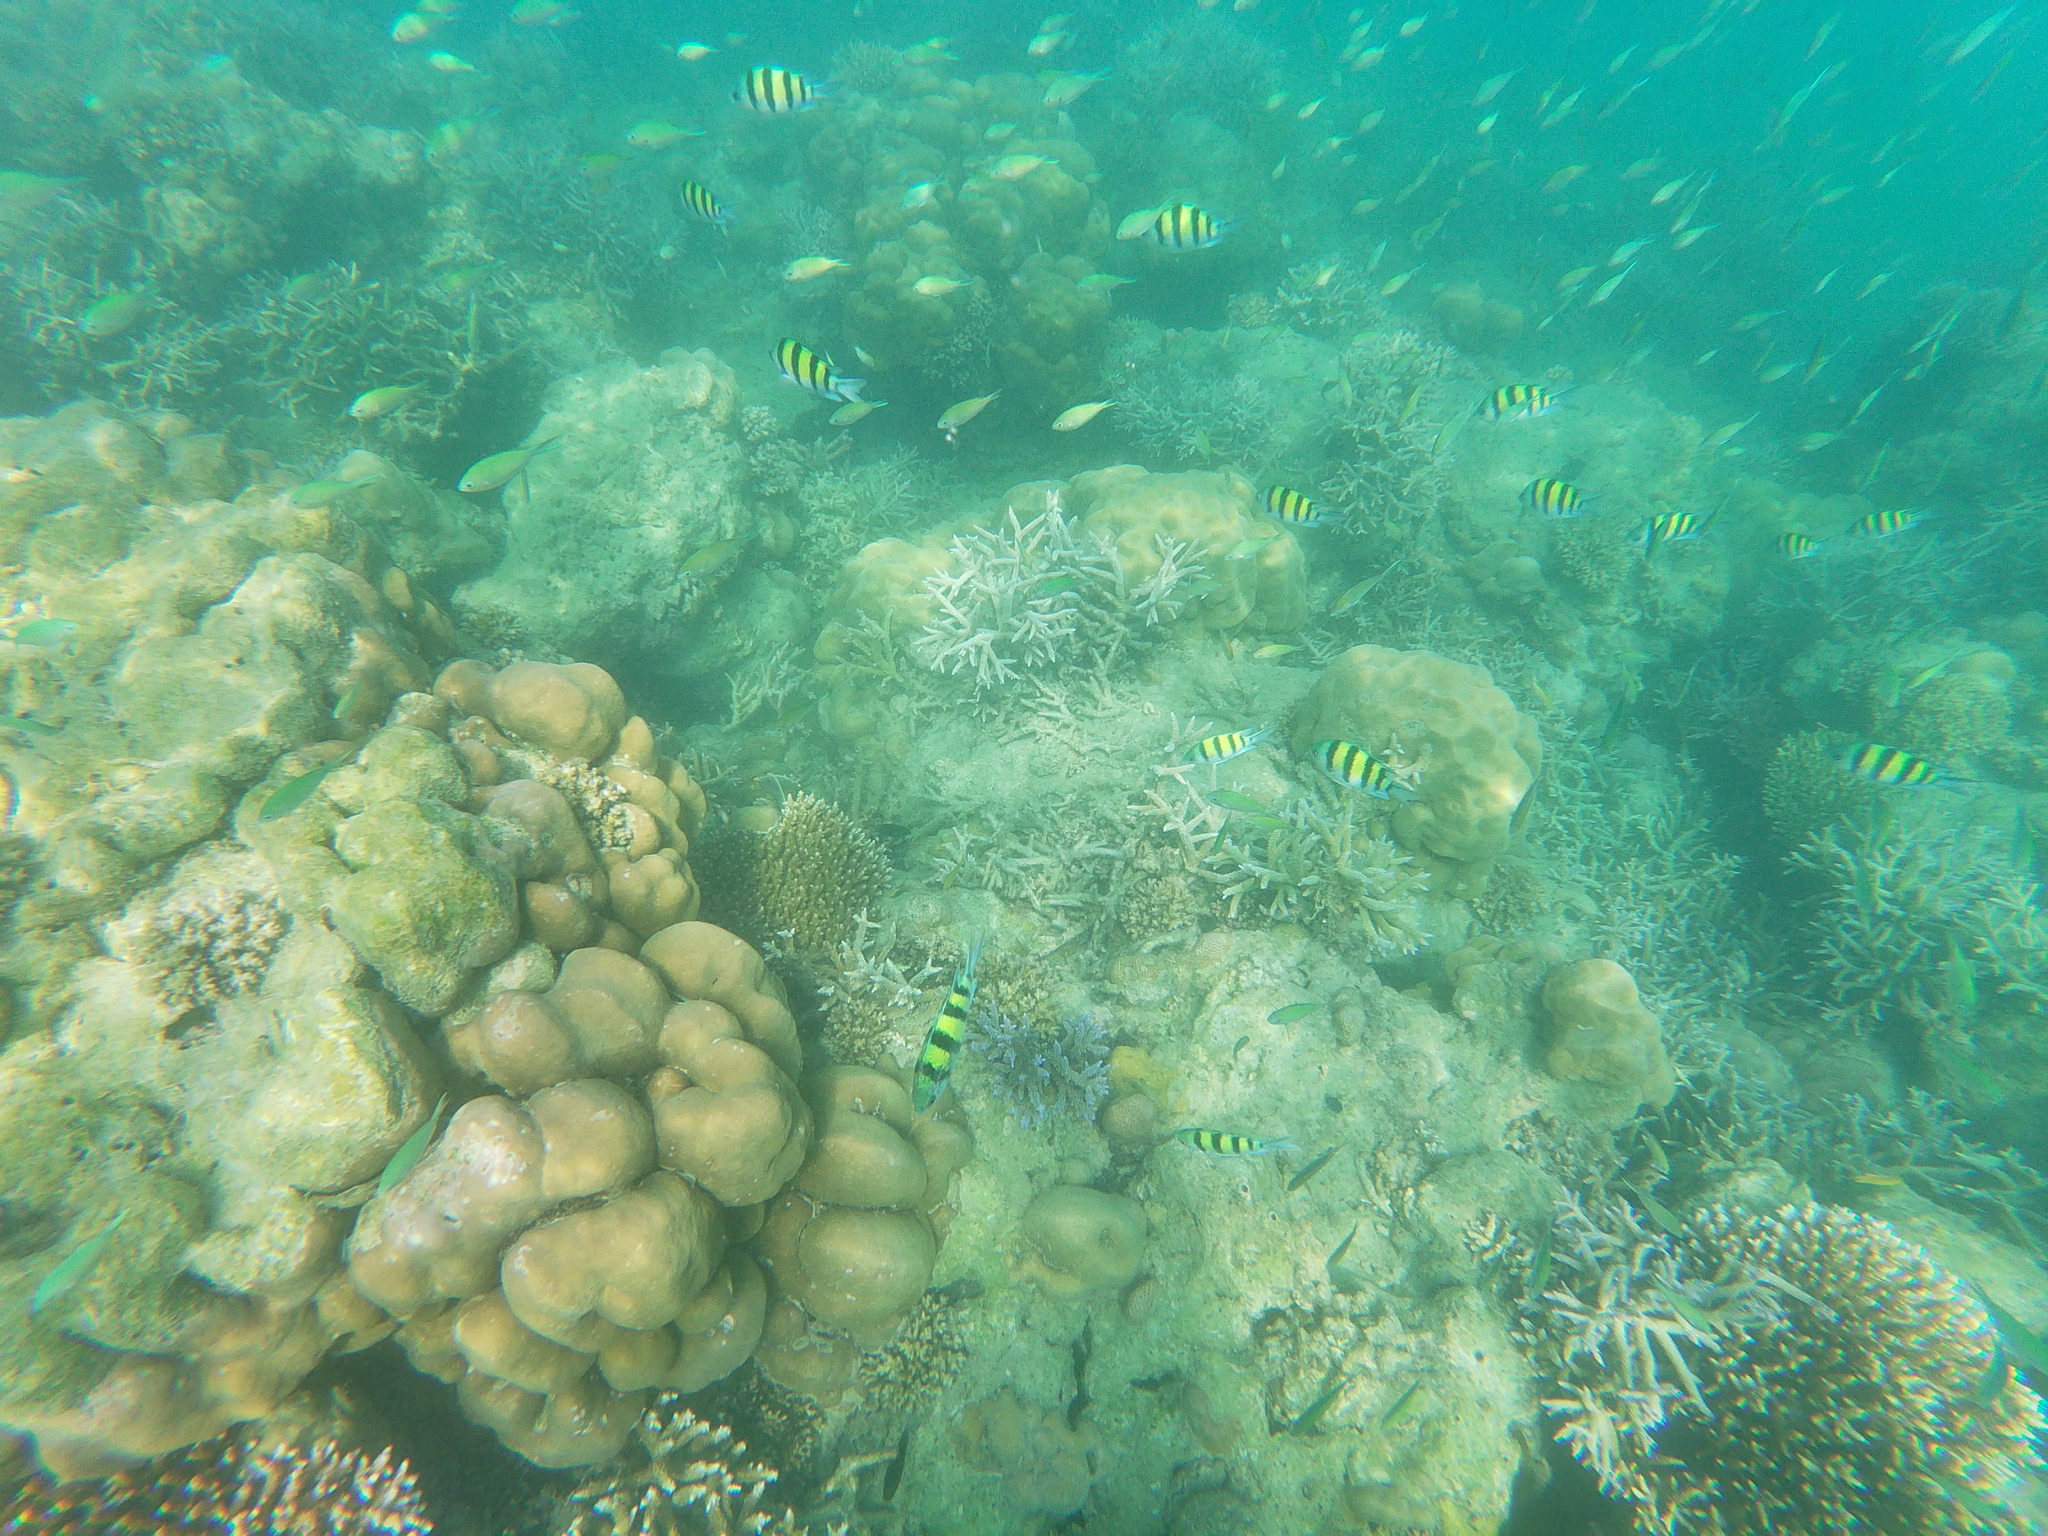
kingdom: Animalia
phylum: Chordata
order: Perciformes
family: Pomacentridae
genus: Abudefduf
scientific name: Abudefduf vaigiensis
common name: Indo-pacific sergeant
